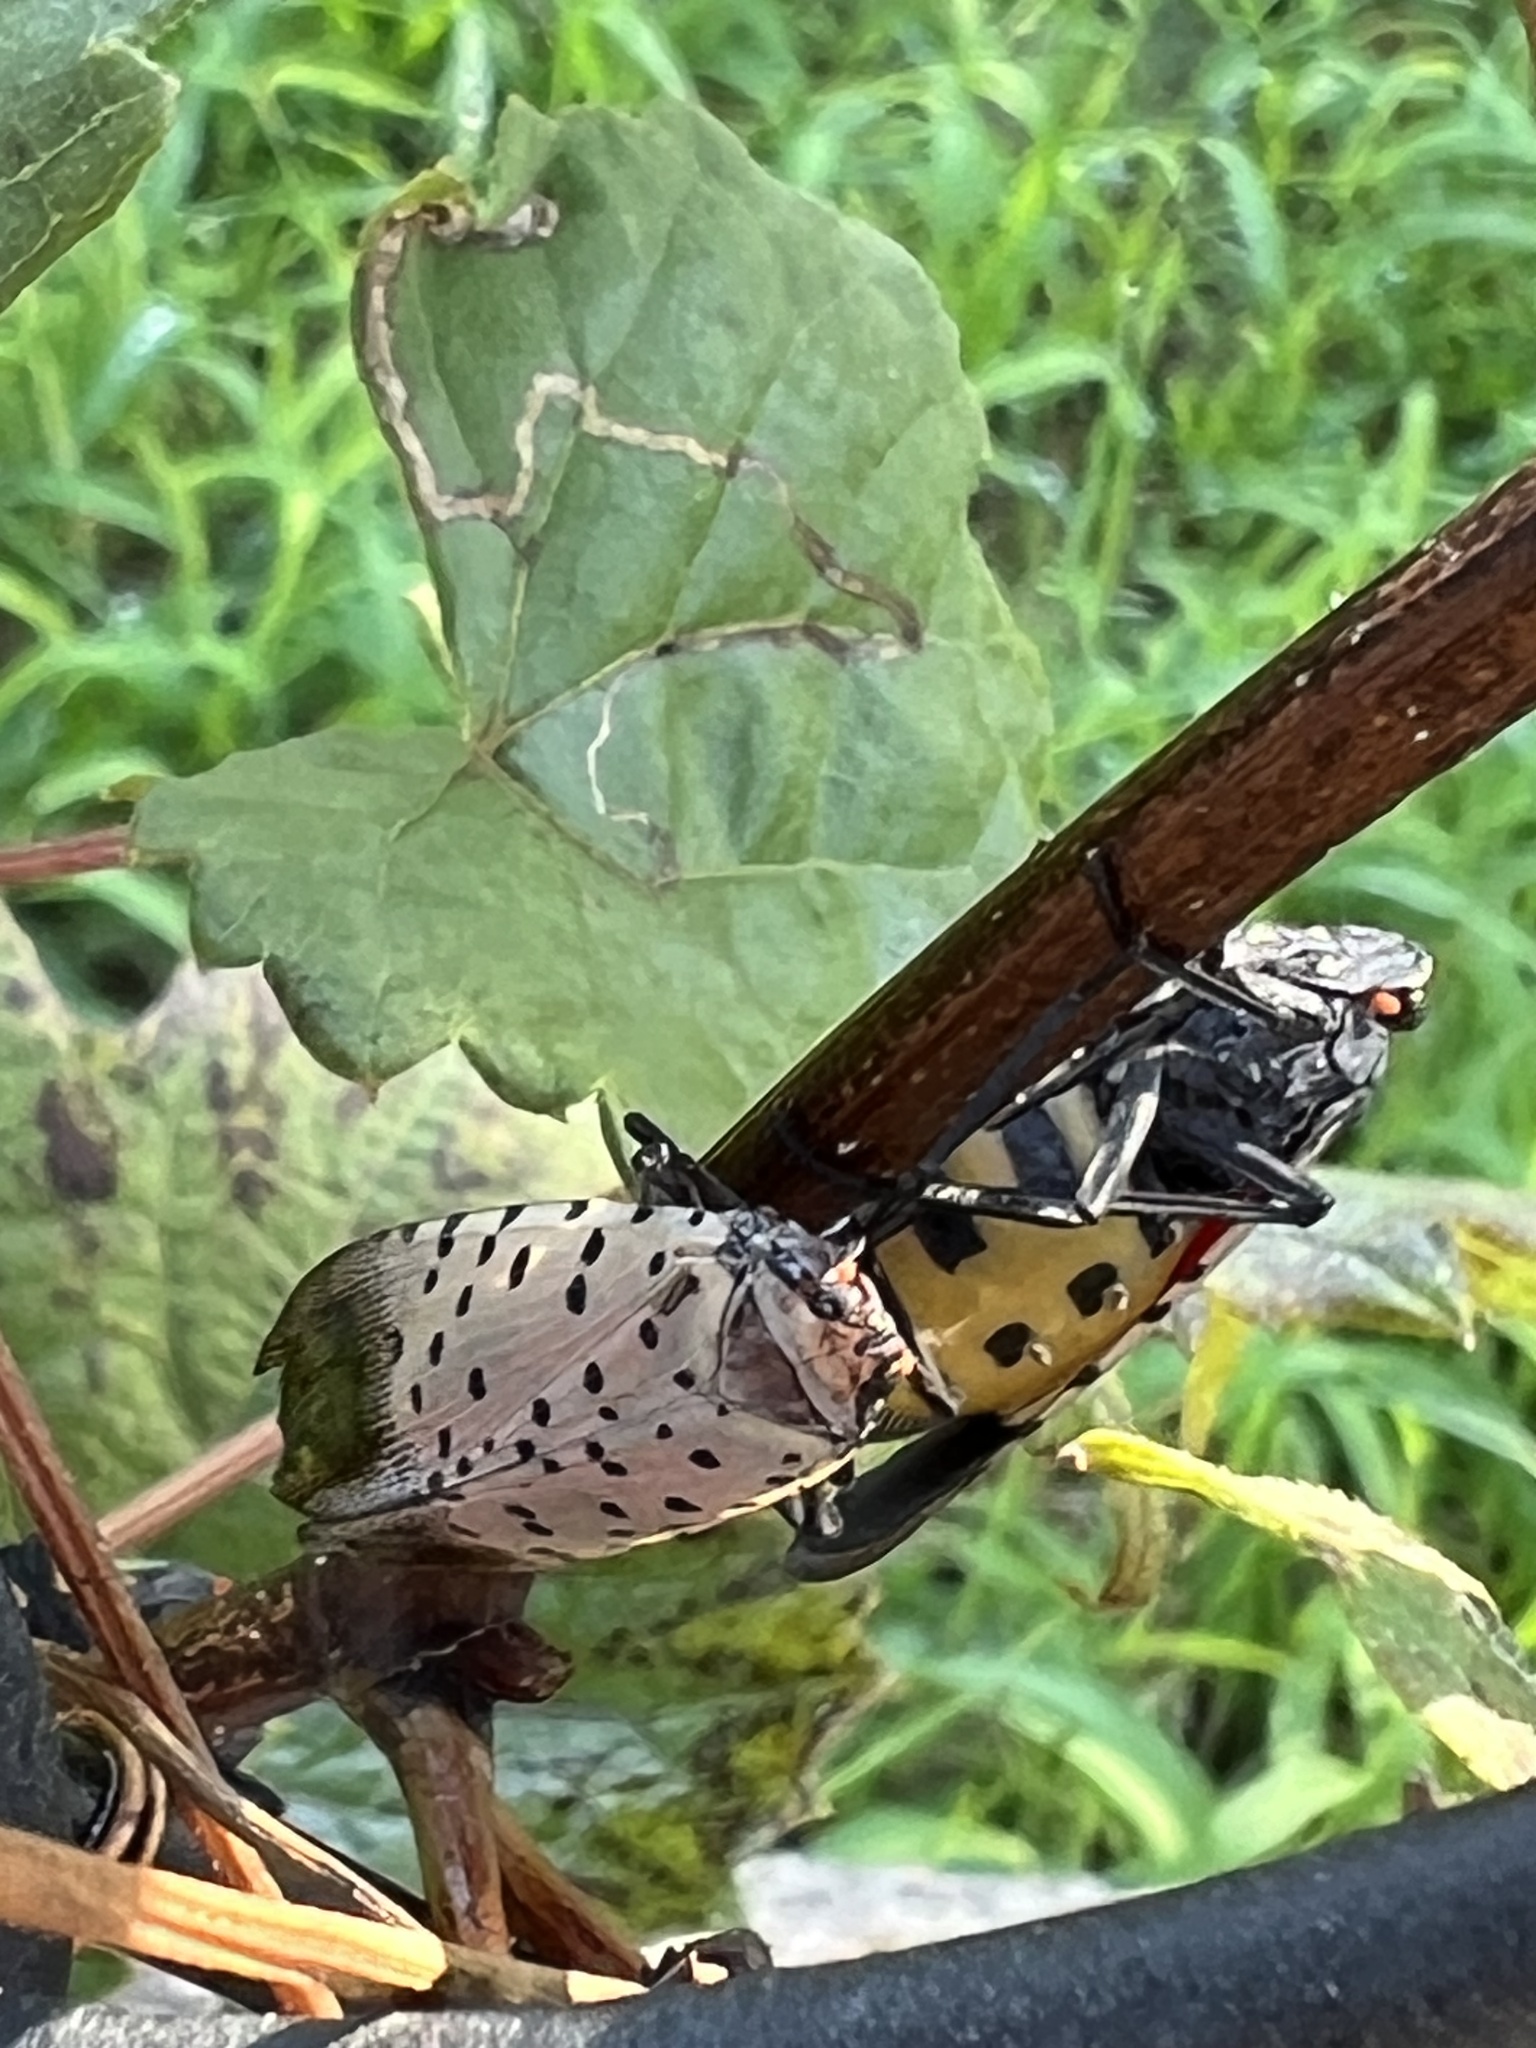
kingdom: Animalia
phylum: Arthropoda
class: Insecta
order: Hemiptera
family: Fulgoridae
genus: Lycorma
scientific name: Lycorma delicatula
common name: Spotted lanternfly
